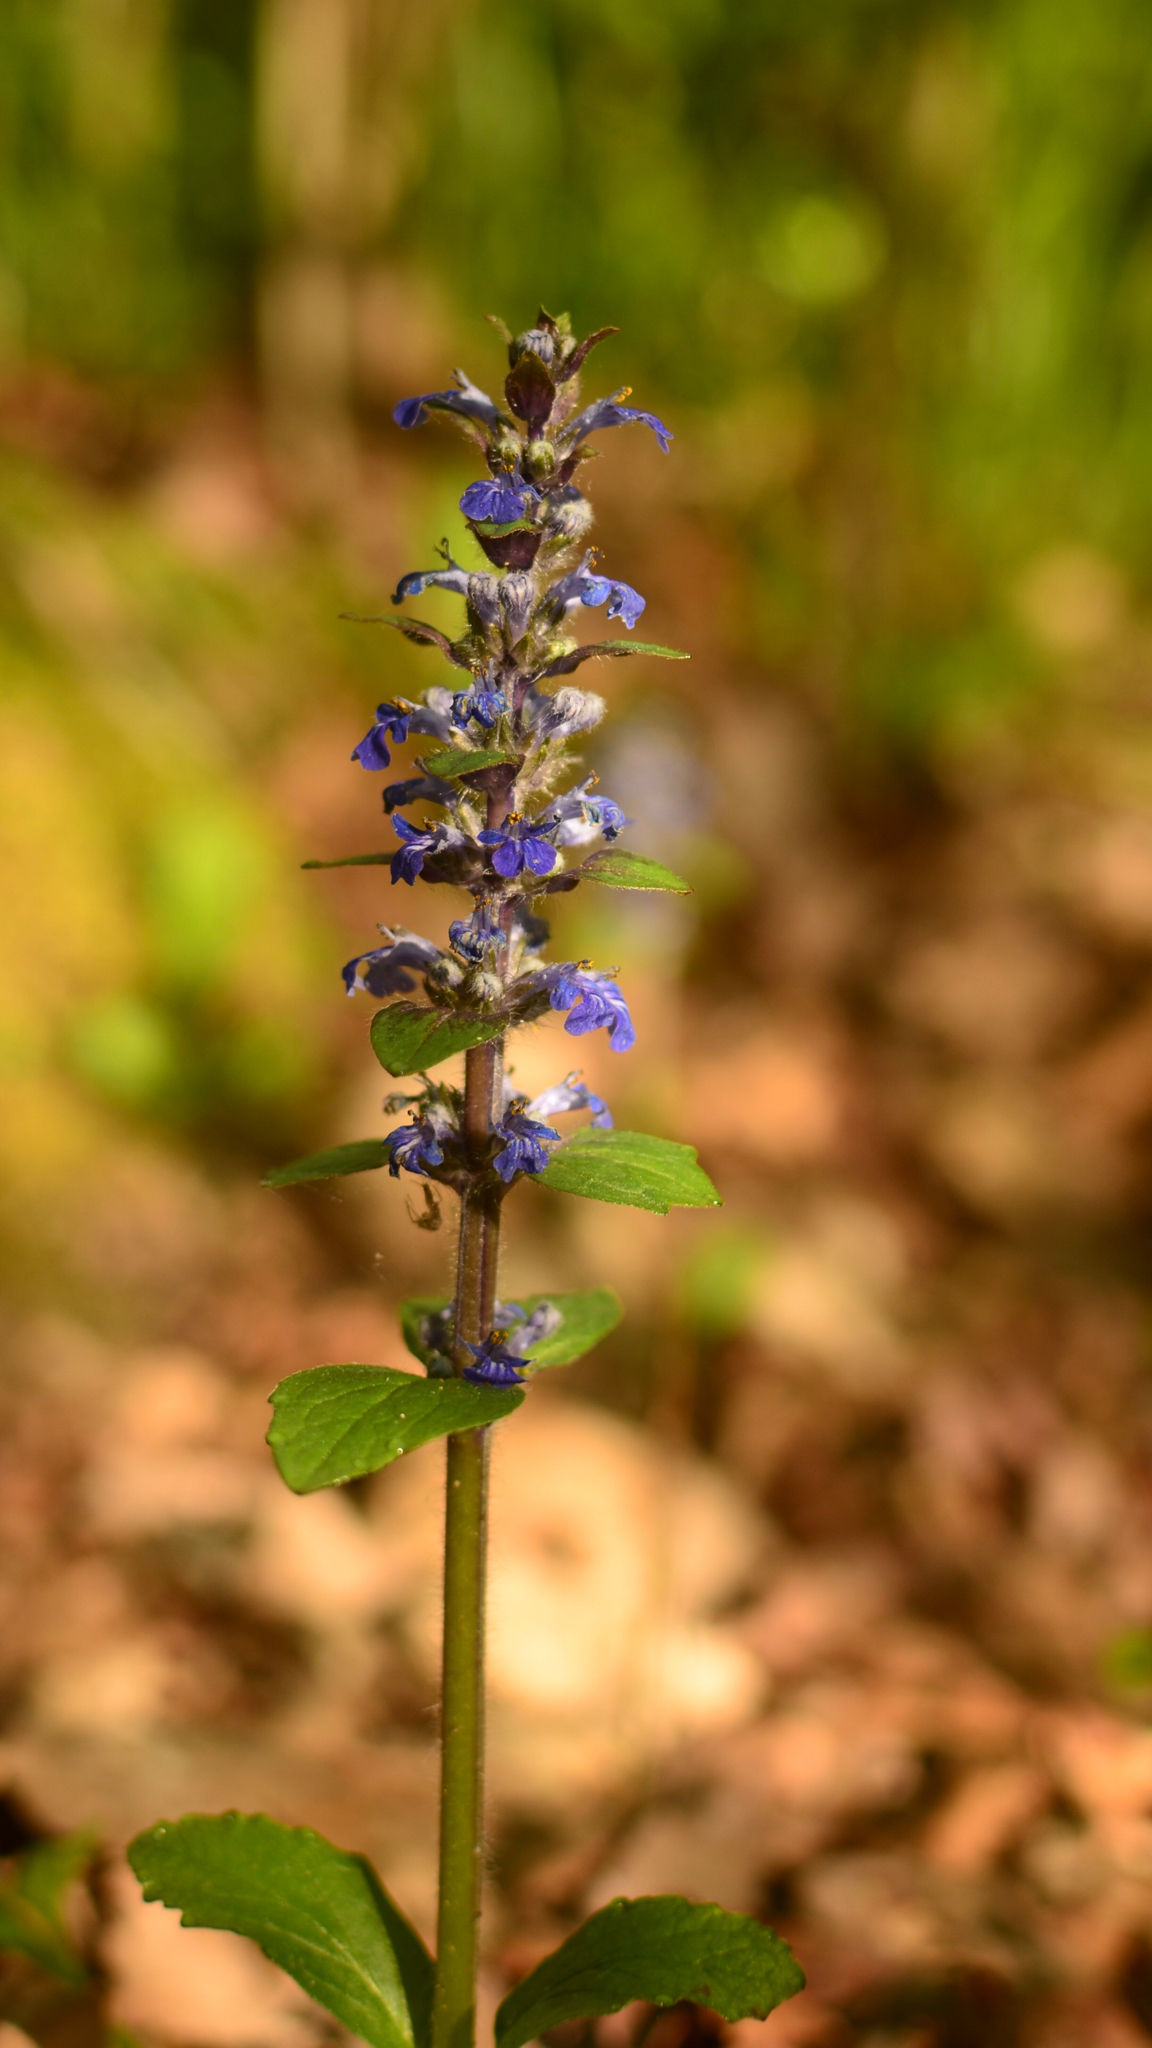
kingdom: Plantae
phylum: Tracheophyta
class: Magnoliopsida
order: Lamiales
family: Lamiaceae
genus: Ajuga
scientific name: Ajuga genevensis
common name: Blue bugle
